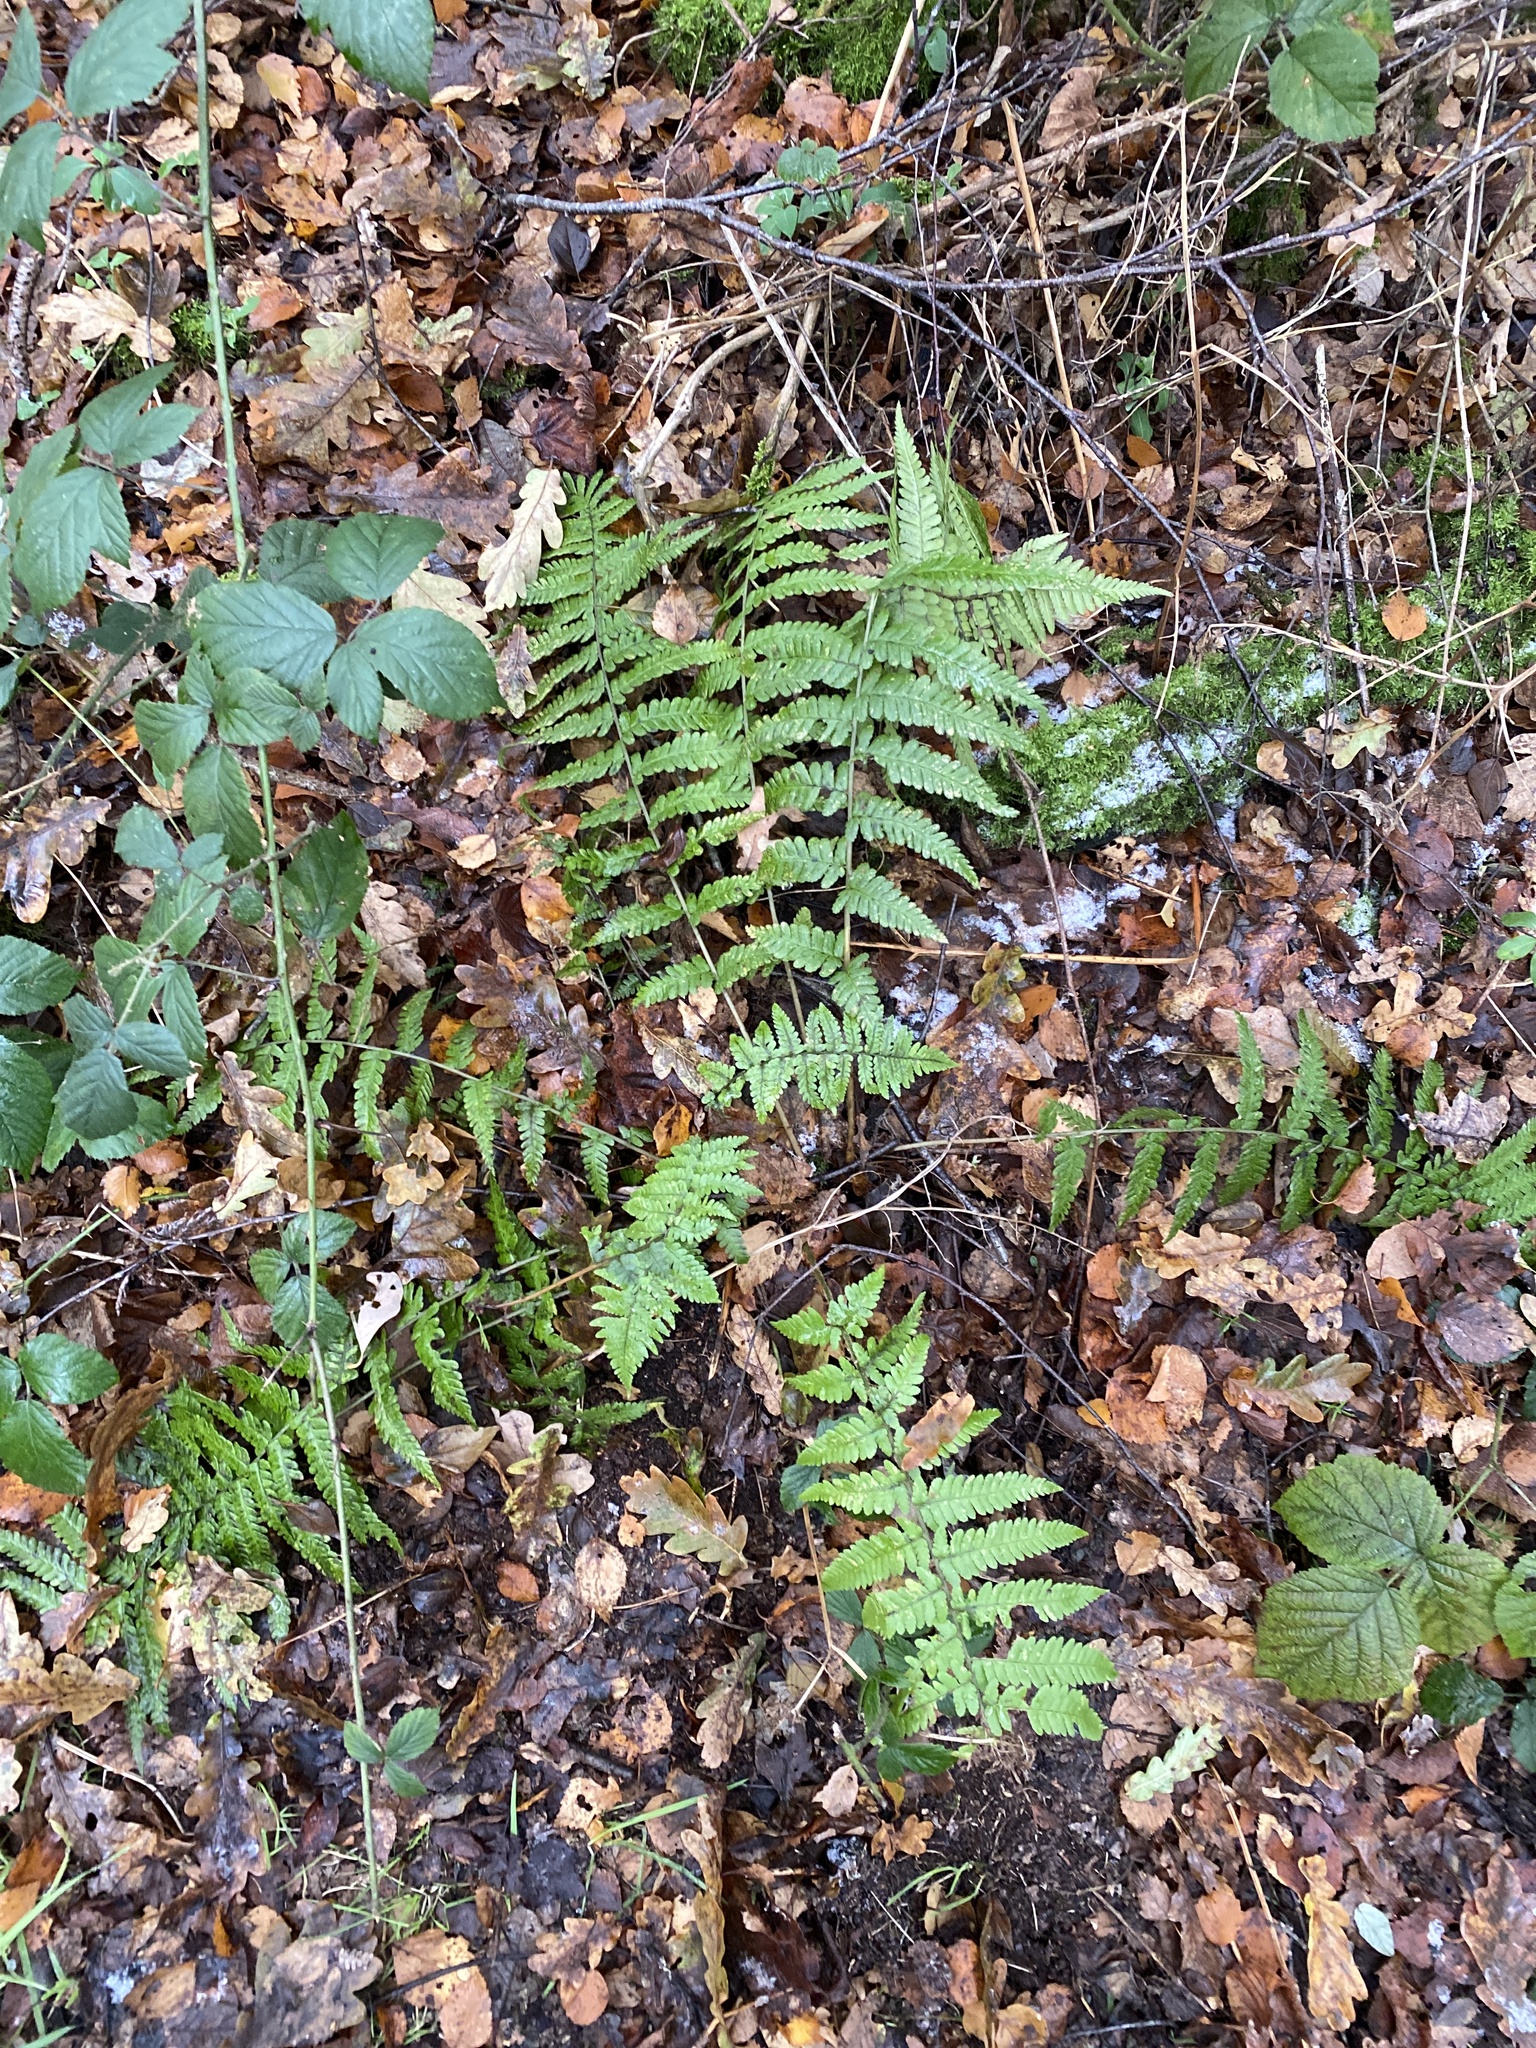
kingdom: Plantae
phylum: Tracheophyta
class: Polypodiopsida
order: Polypodiales
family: Dryopteridaceae
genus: Dryopteris
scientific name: Dryopteris filix-mas
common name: Male fern
